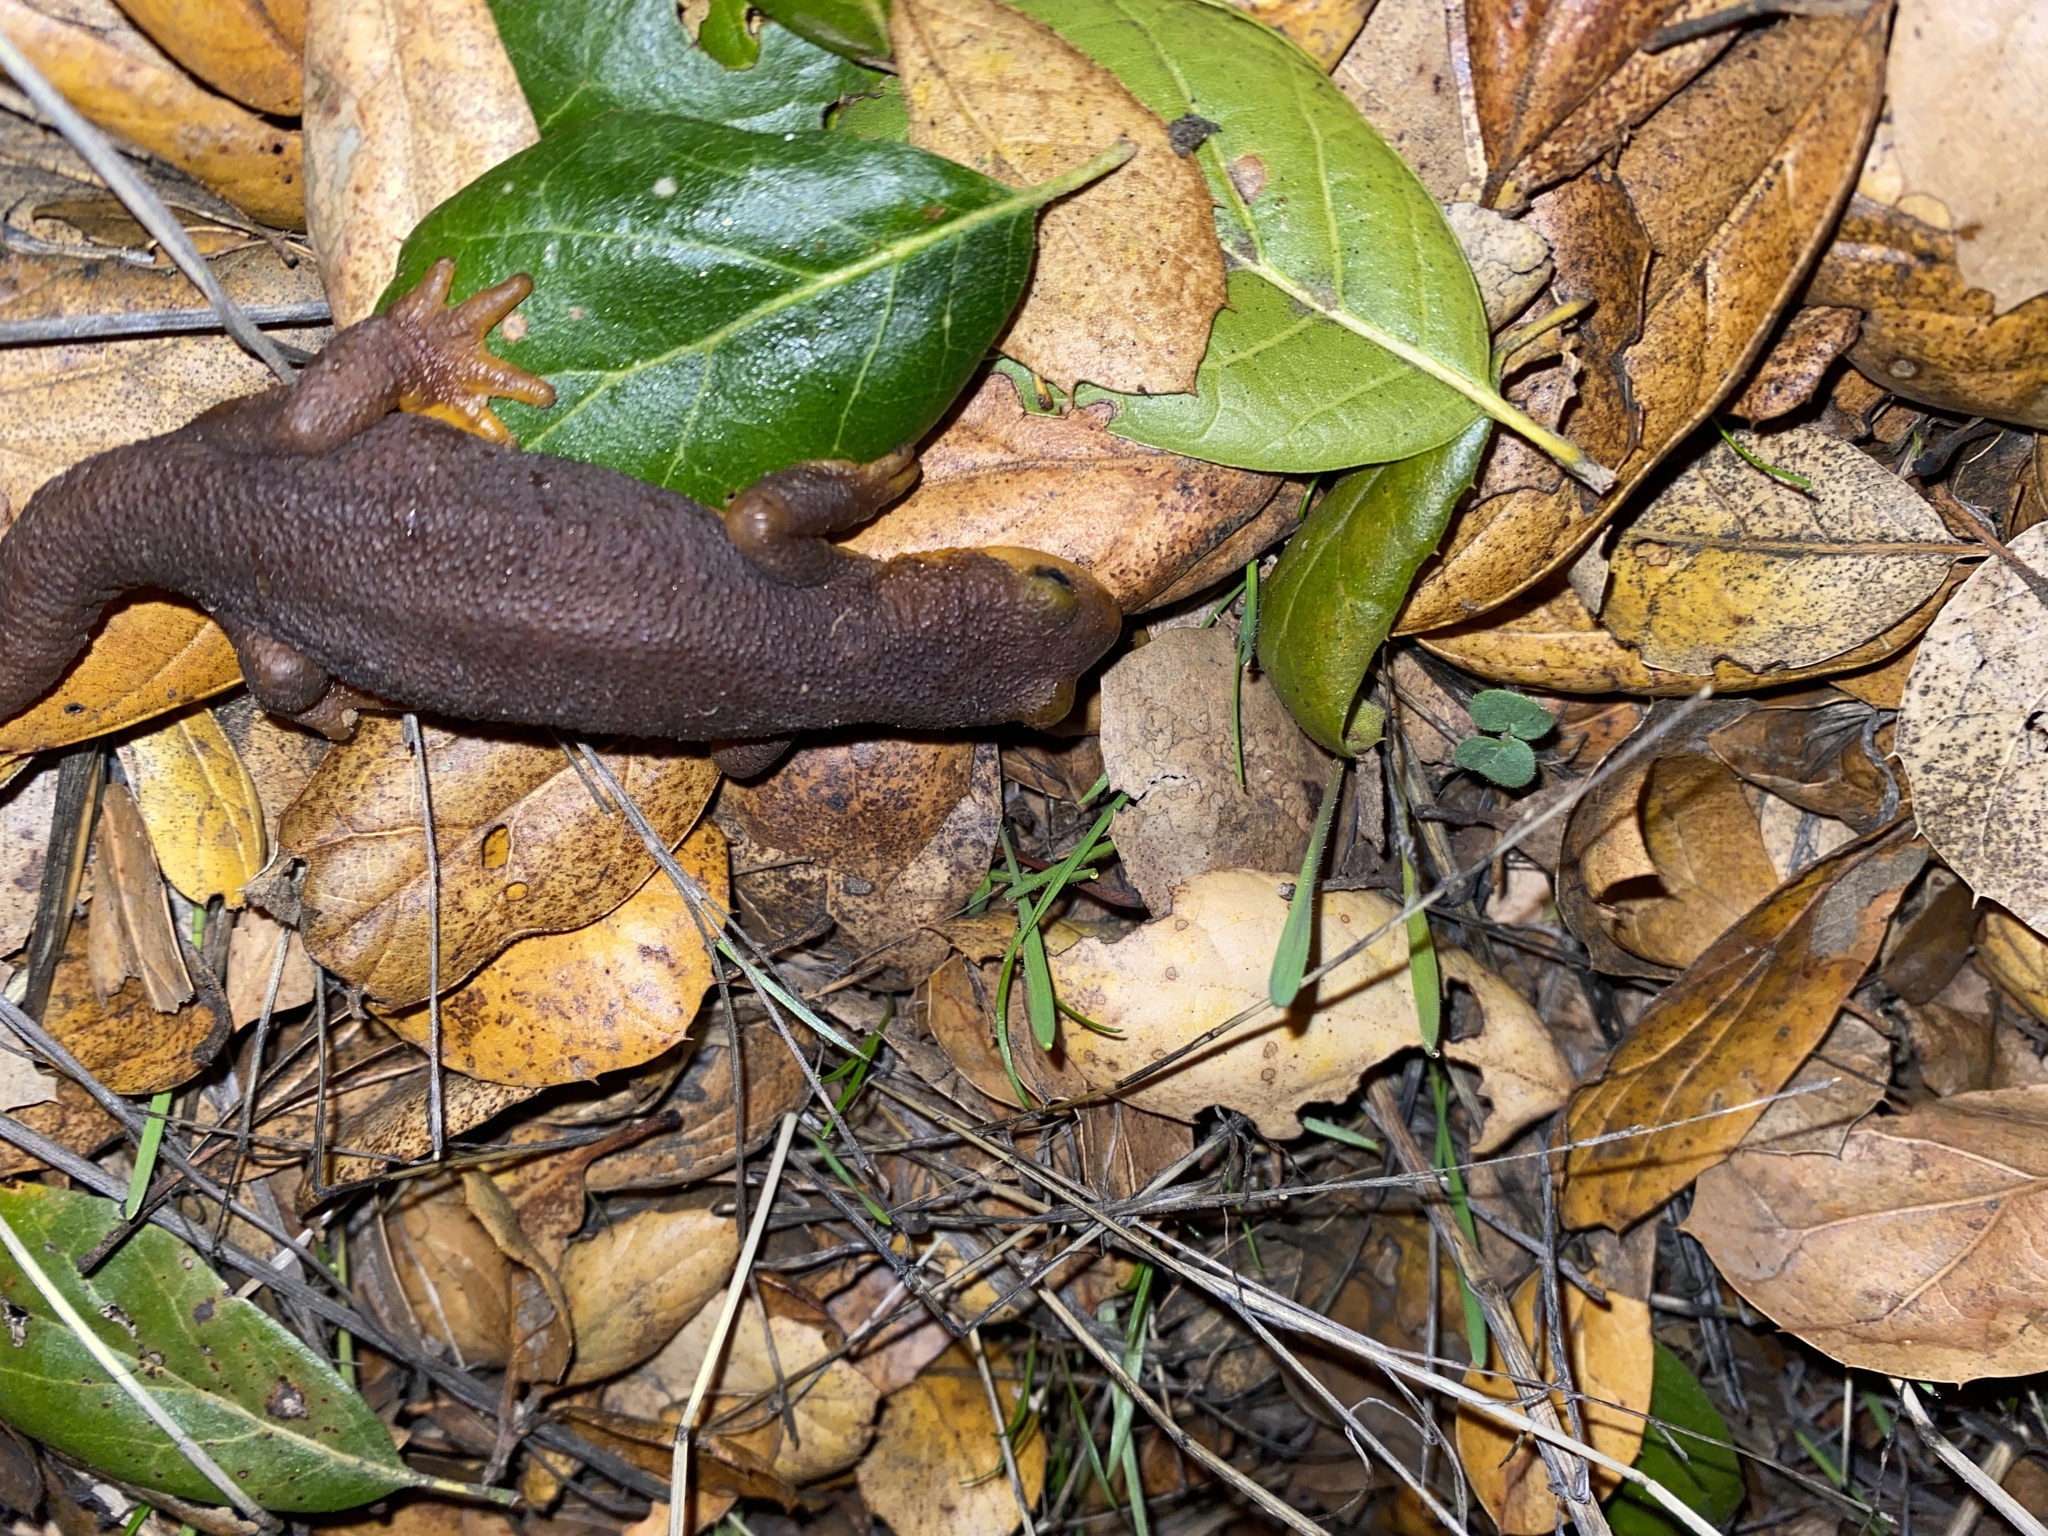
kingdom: Animalia
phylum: Chordata
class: Amphibia
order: Caudata
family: Salamandridae
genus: Taricha
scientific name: Taricha torosa
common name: California newt
